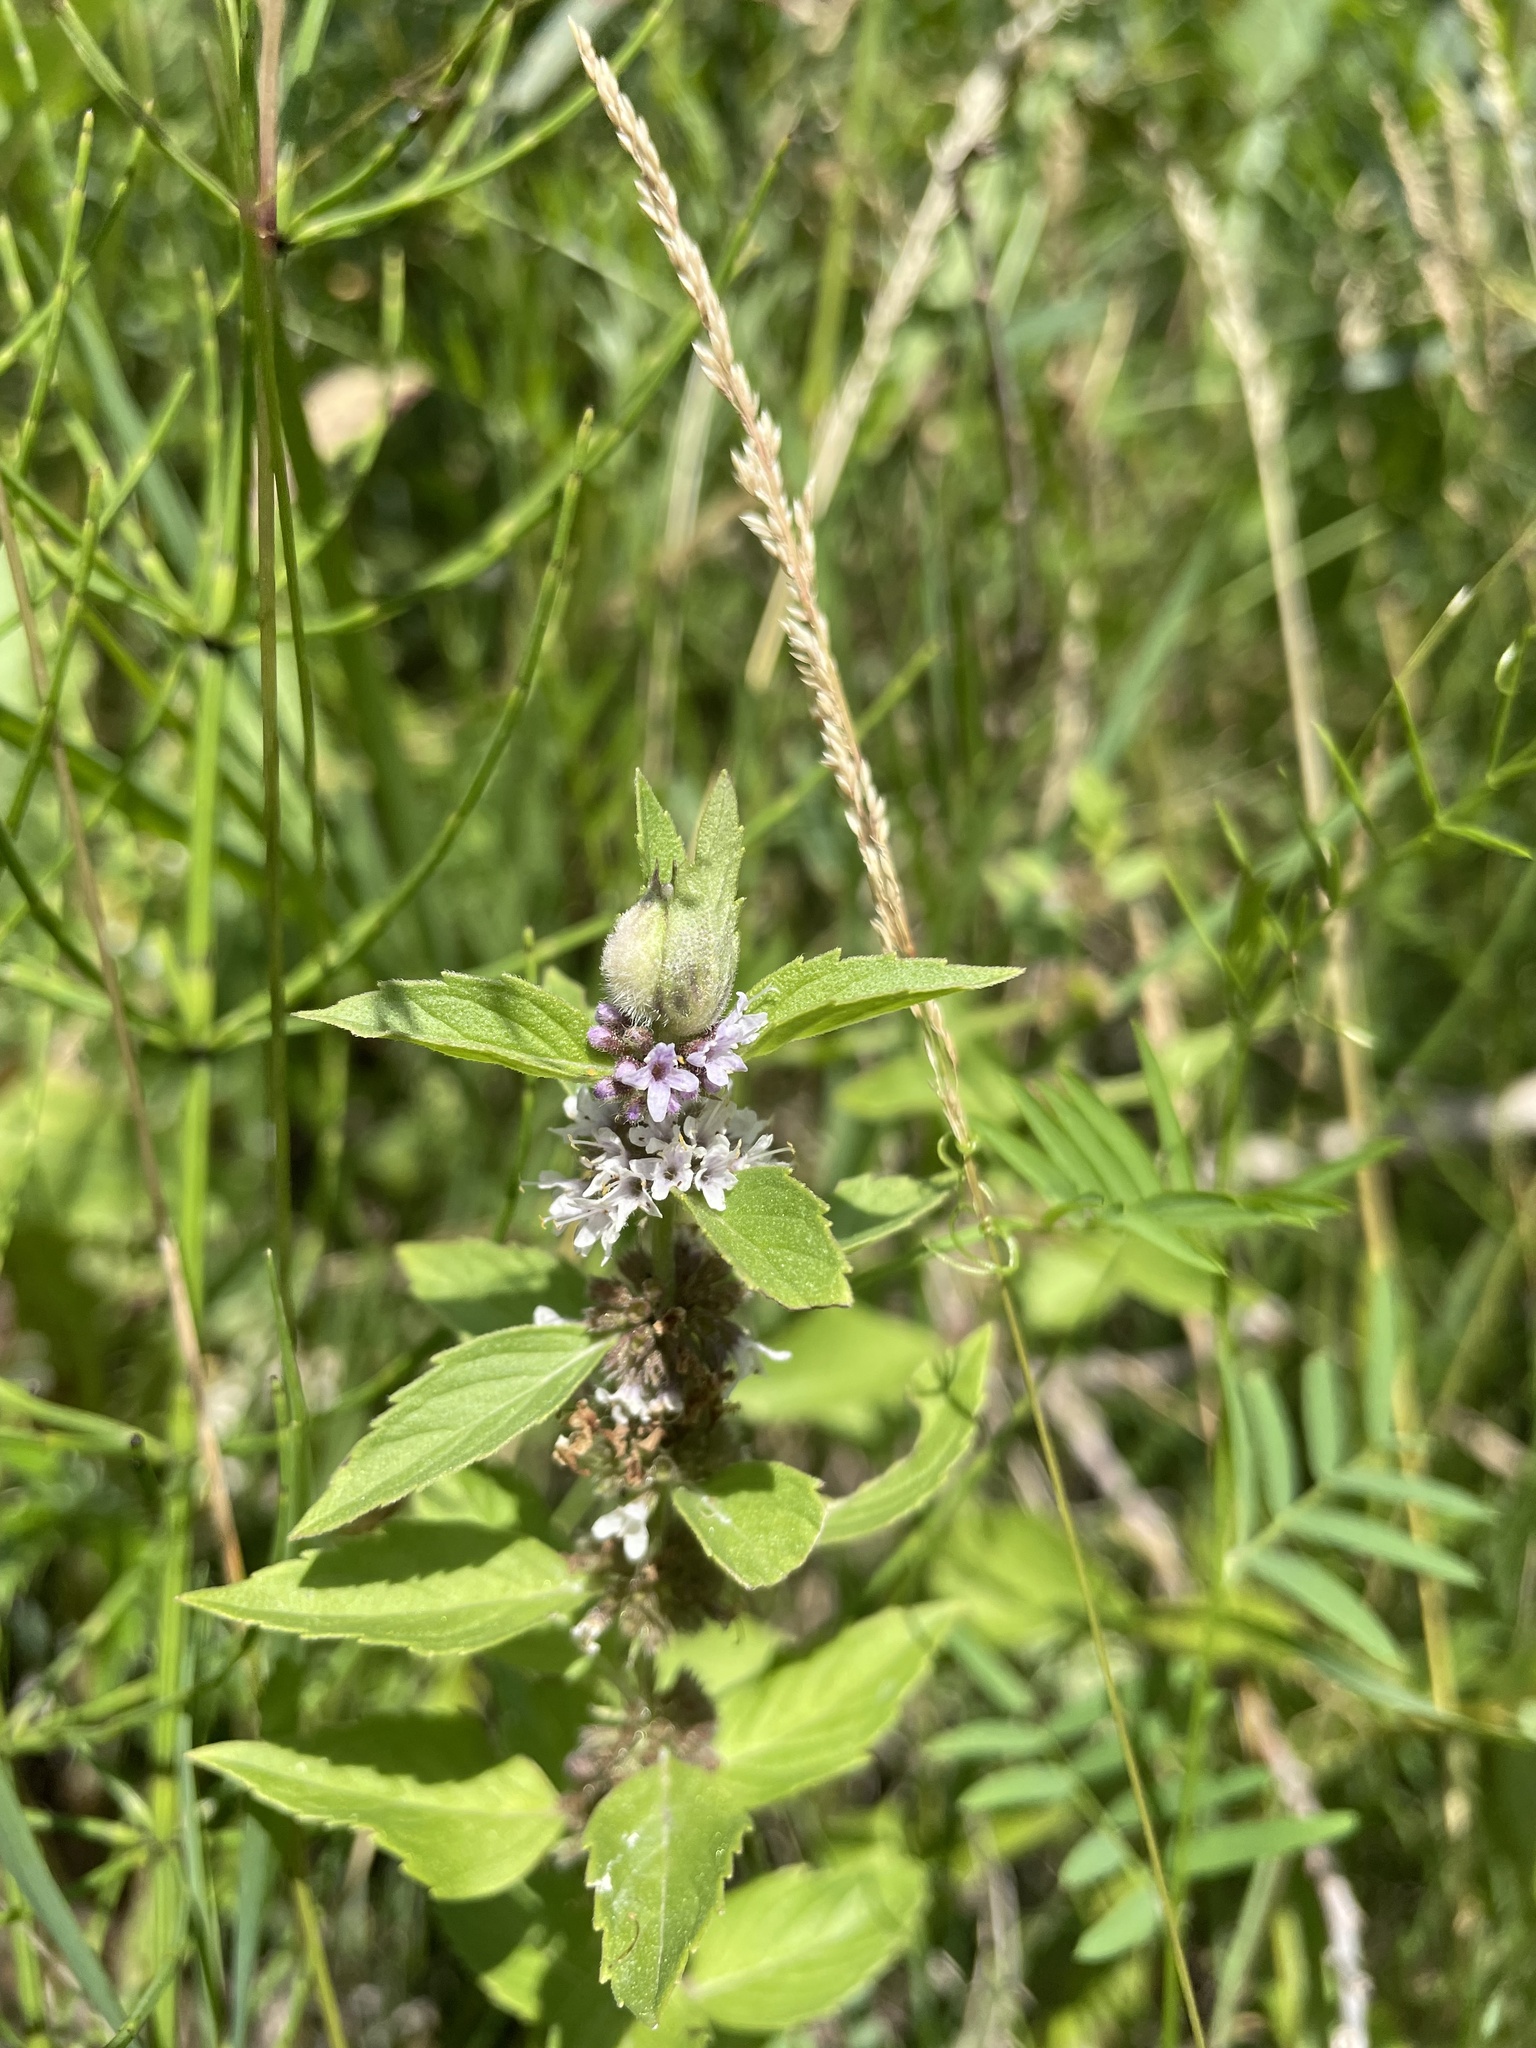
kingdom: Plantae
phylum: Tracheophyta
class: Magnoliopsida
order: Lamiales
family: Lamiaceae
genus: Mentha
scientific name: Mentha canadensis
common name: American corn mint
